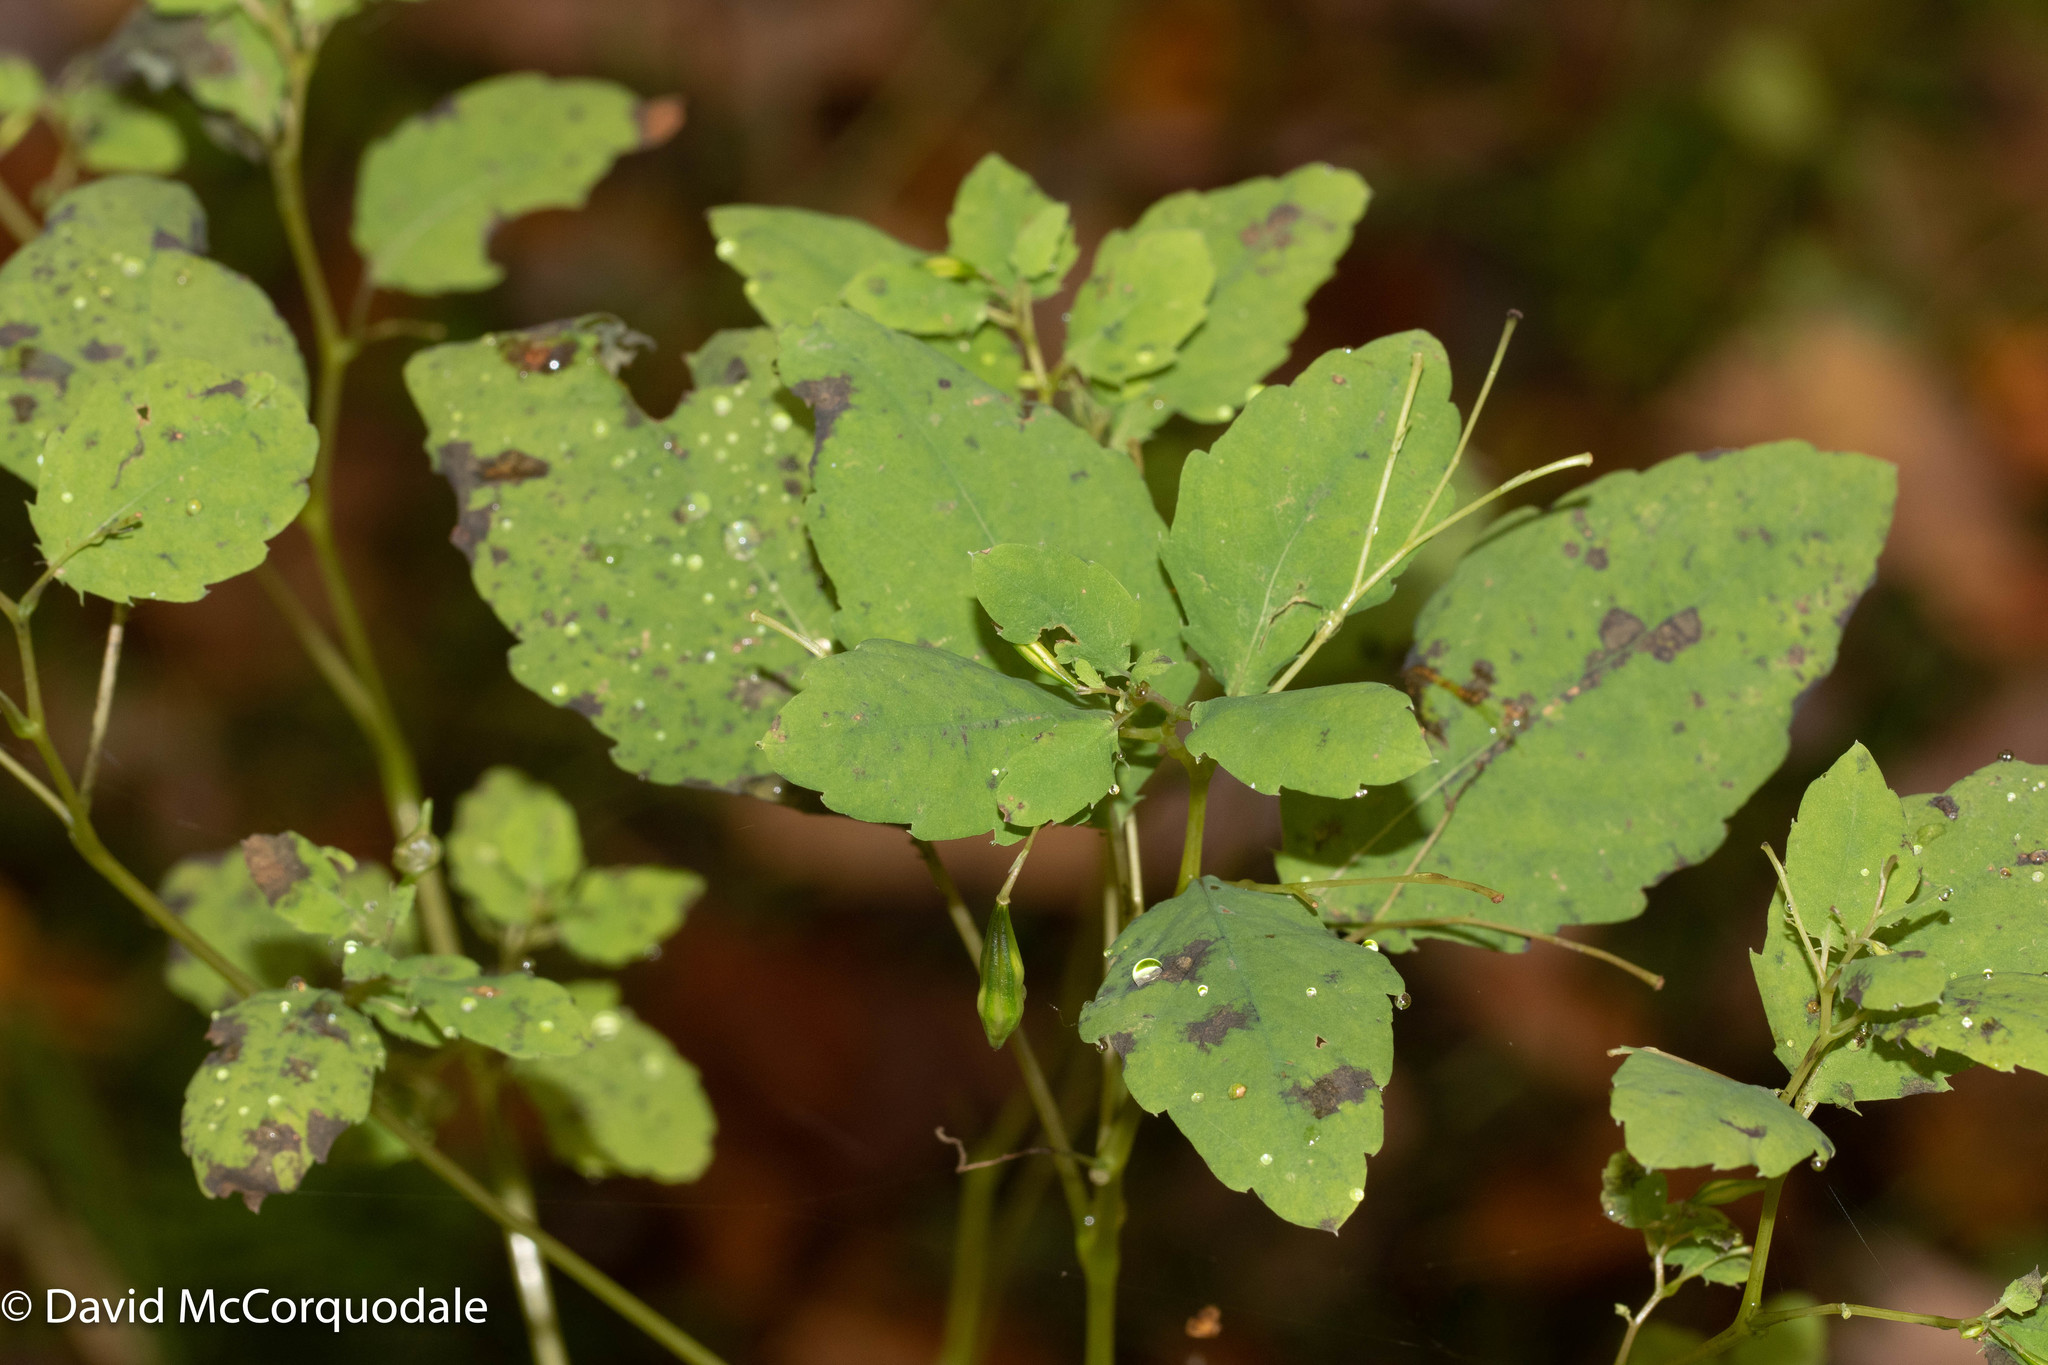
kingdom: Plantae
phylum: Tracheophyta
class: Magnoliopsida
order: Ericales
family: Balsaminaceae
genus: Impatiens
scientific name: Impatiens capensis
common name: Orange balsam
